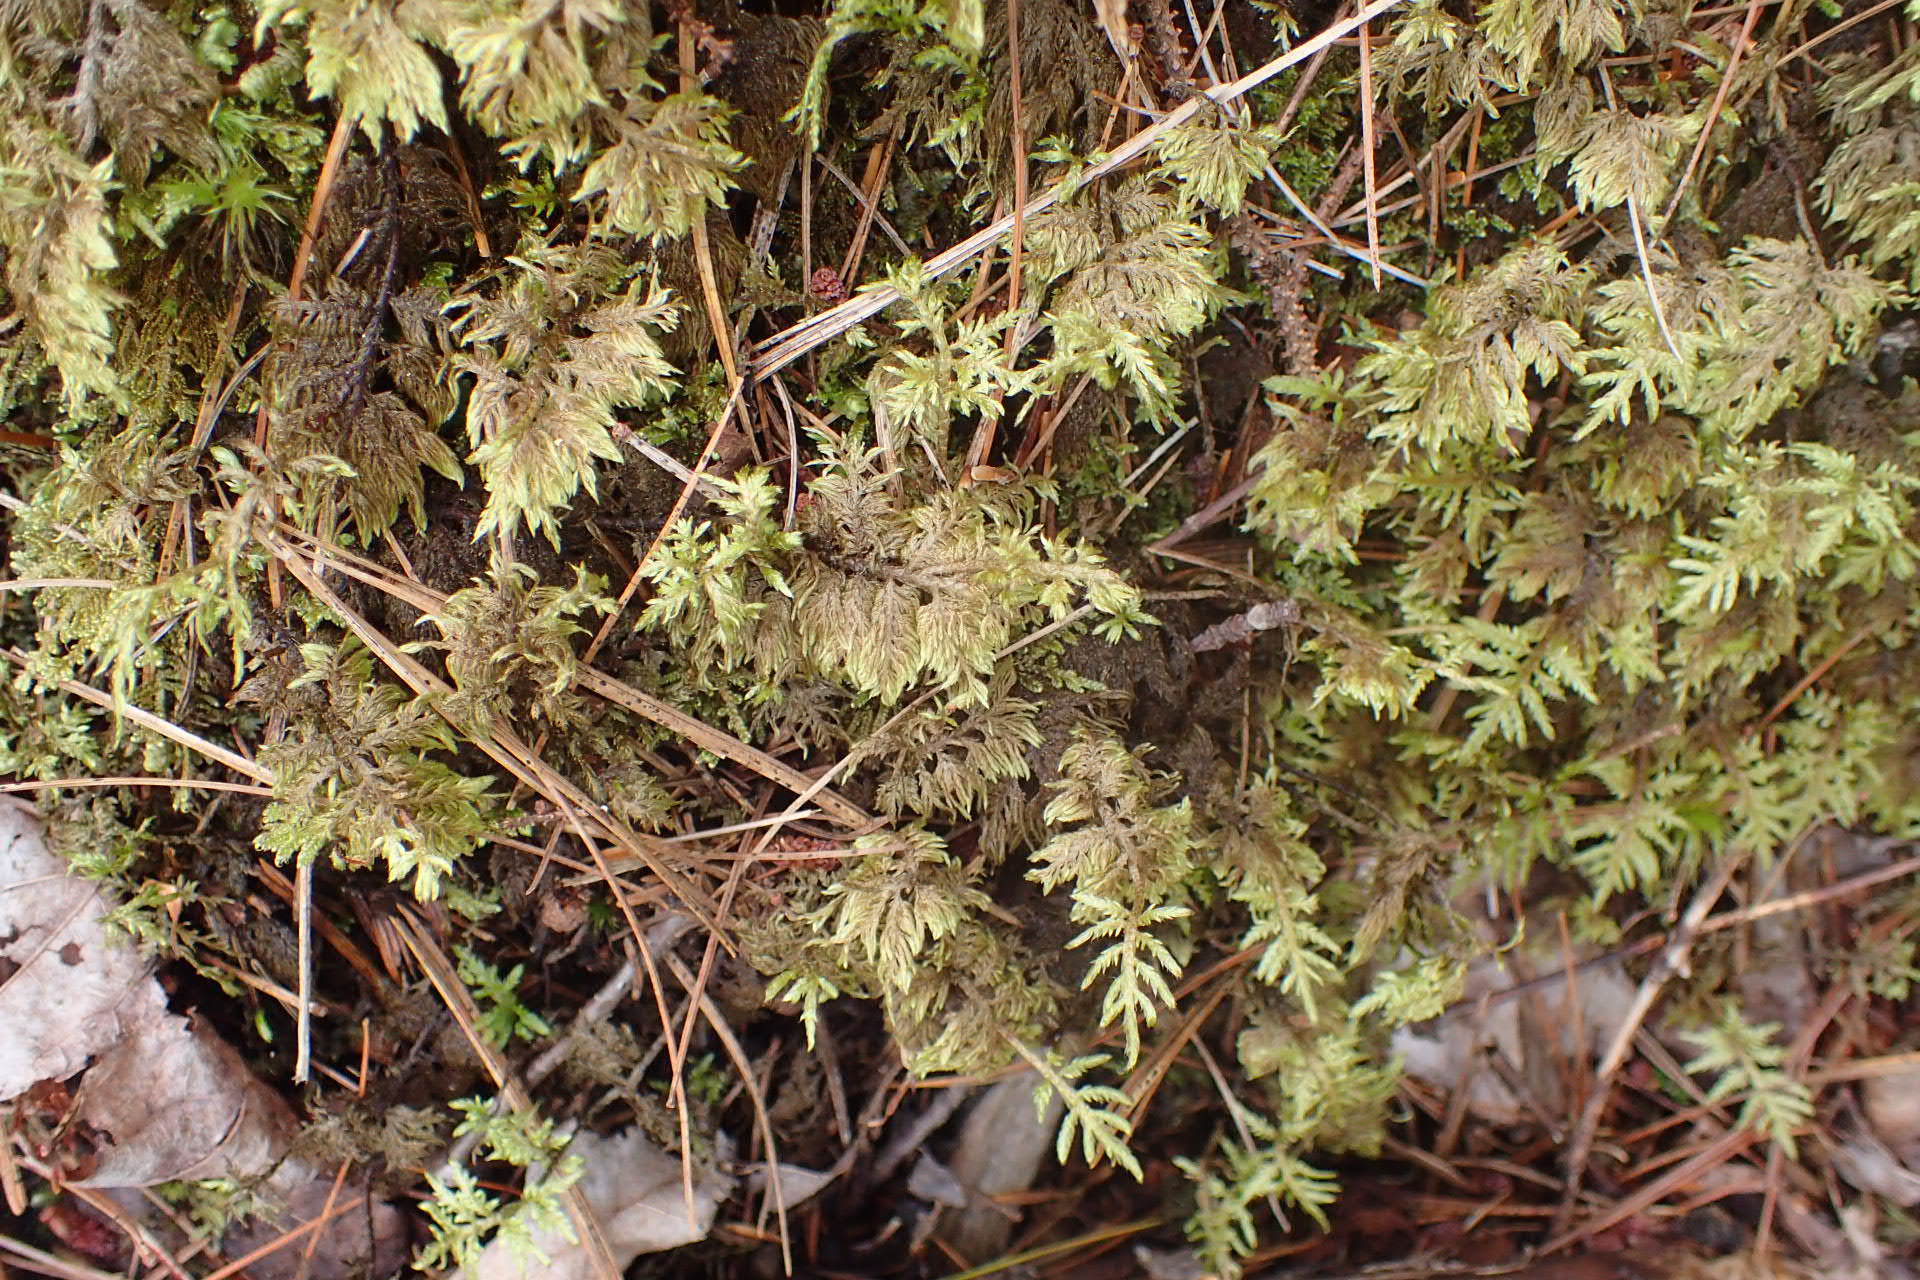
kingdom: Plantae
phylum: Bryophyta
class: Bryopsida
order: Hypnales
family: Hylocomiaceae
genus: Hylocomium
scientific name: Hylocomium splendens
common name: Stairstep moss
